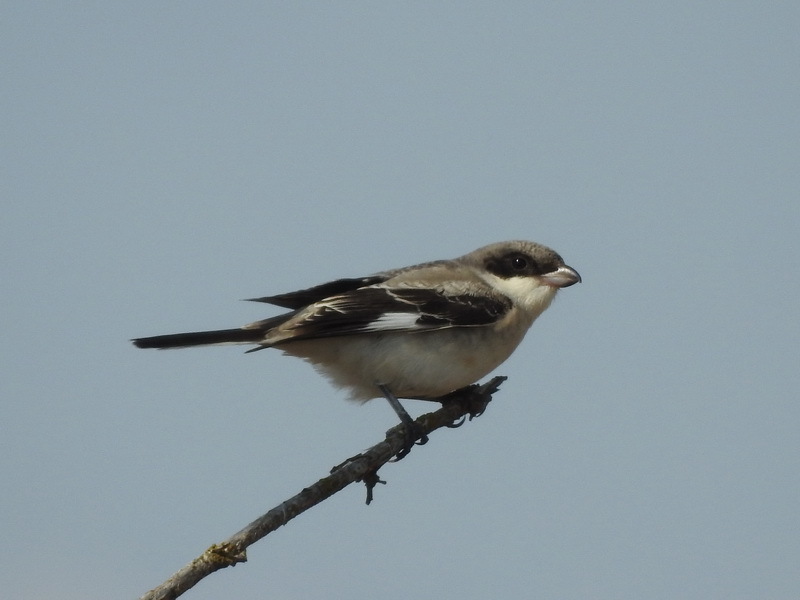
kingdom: Animalia
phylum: Chordata
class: Aves
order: Passeriformes
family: Laniidae
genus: Lanius
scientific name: Lanius minor
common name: Lesser grey shrike
